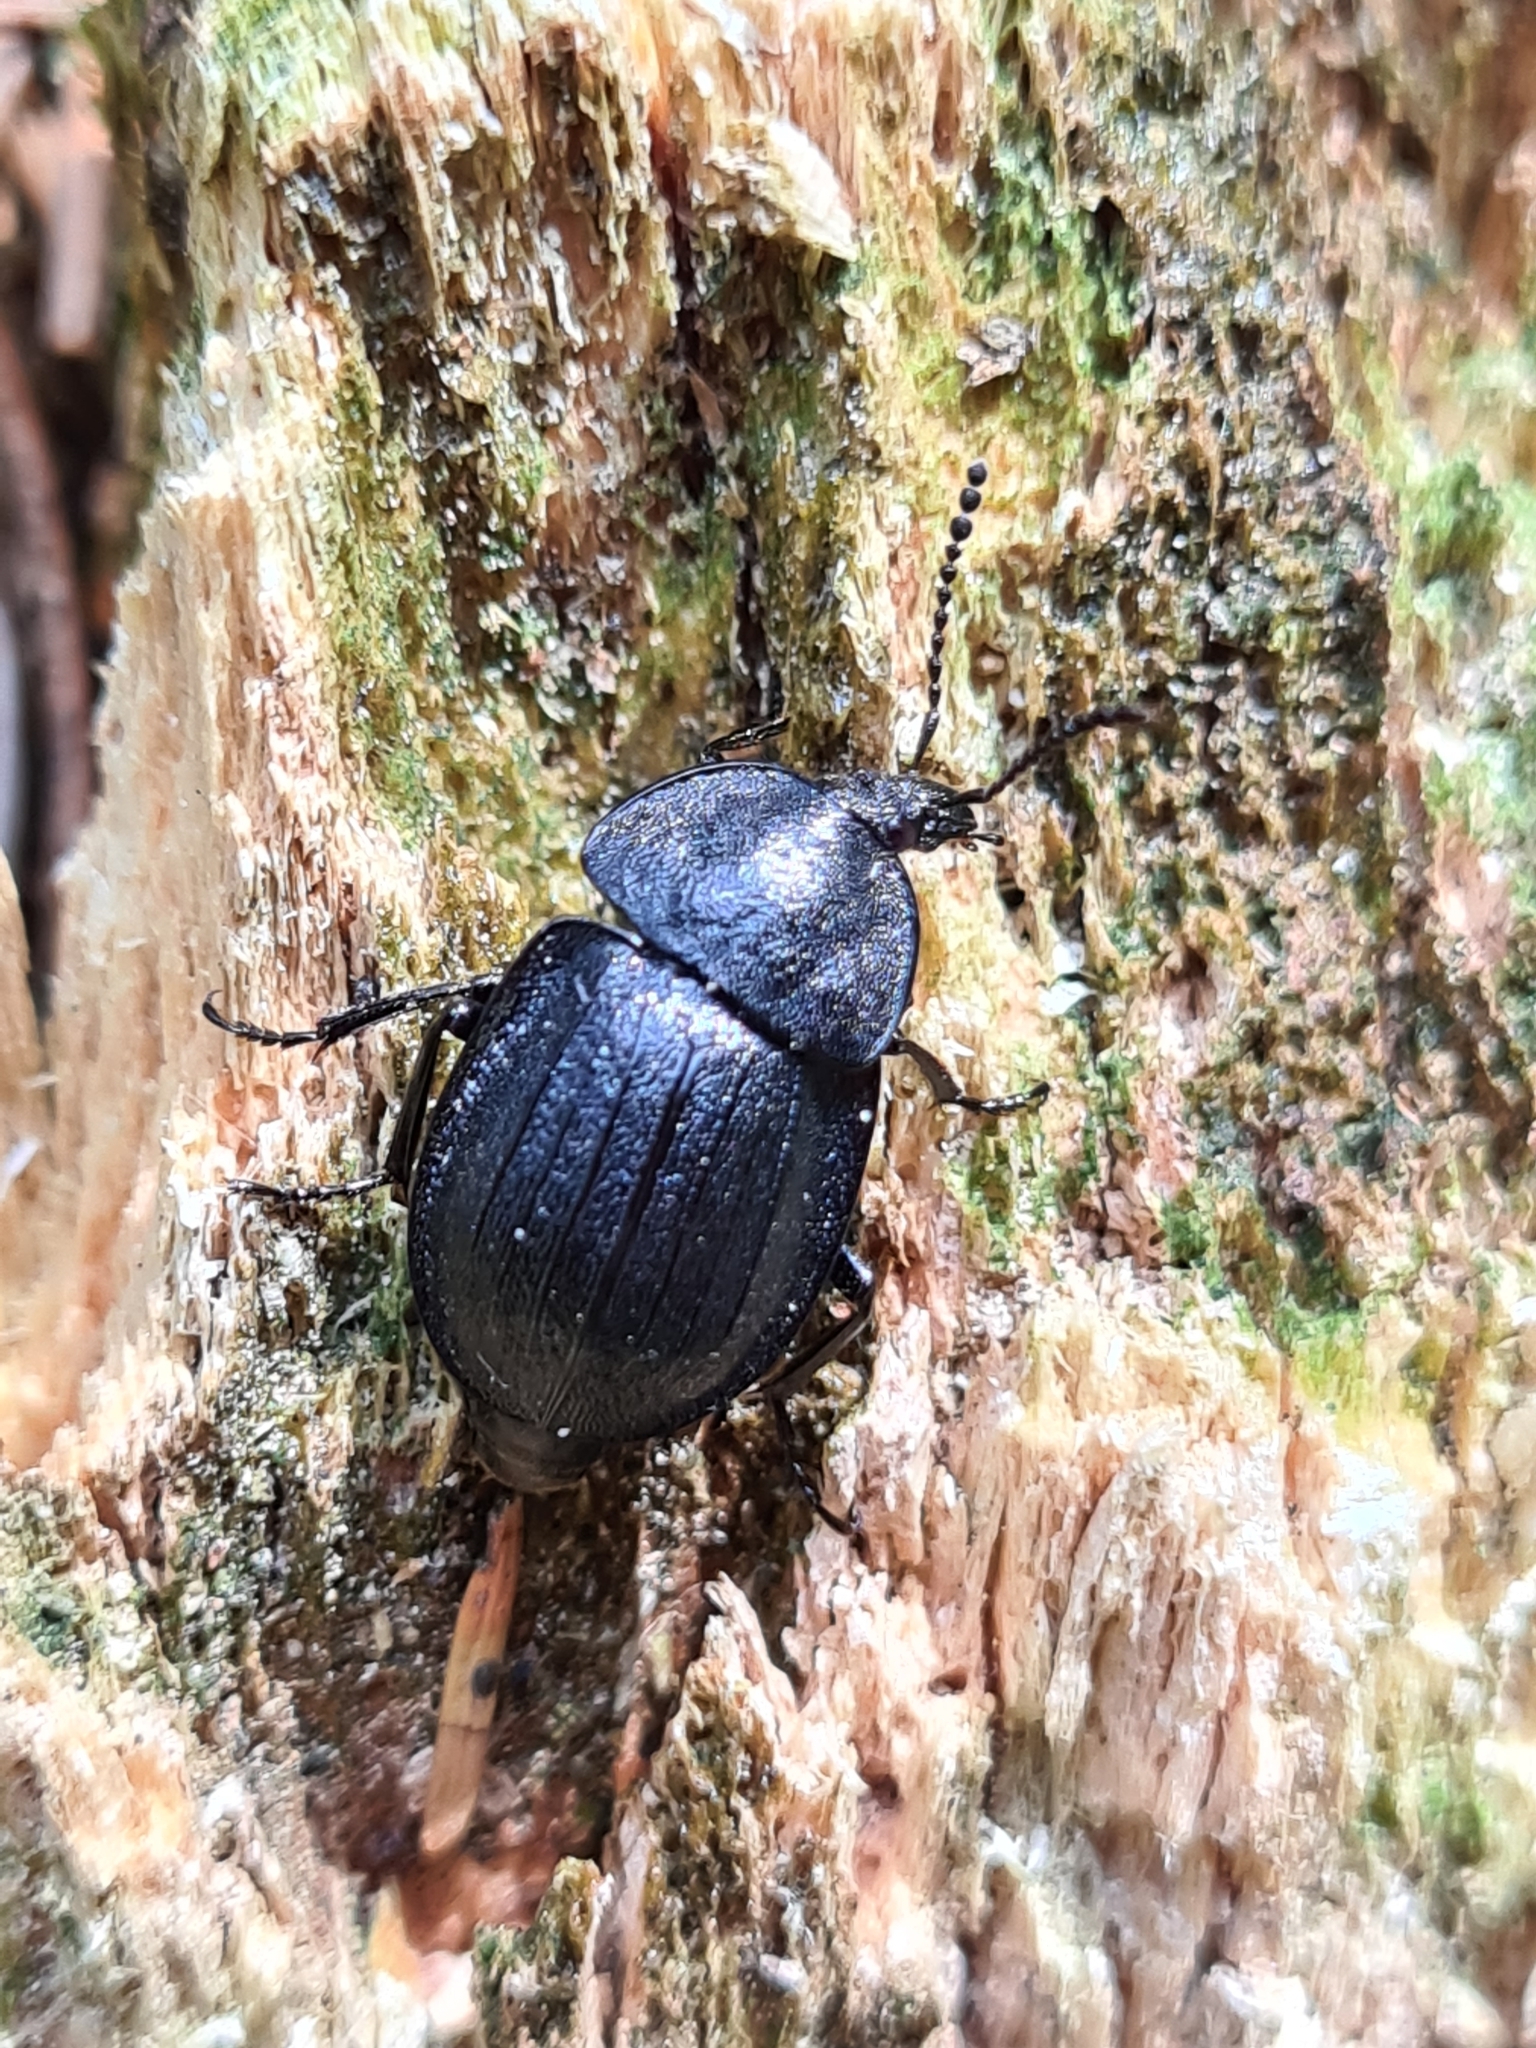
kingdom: Animalia
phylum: Arthropoda
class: Insecta
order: Coleoptera
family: Staphylinidae
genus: Silpha
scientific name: Silpha atrata
